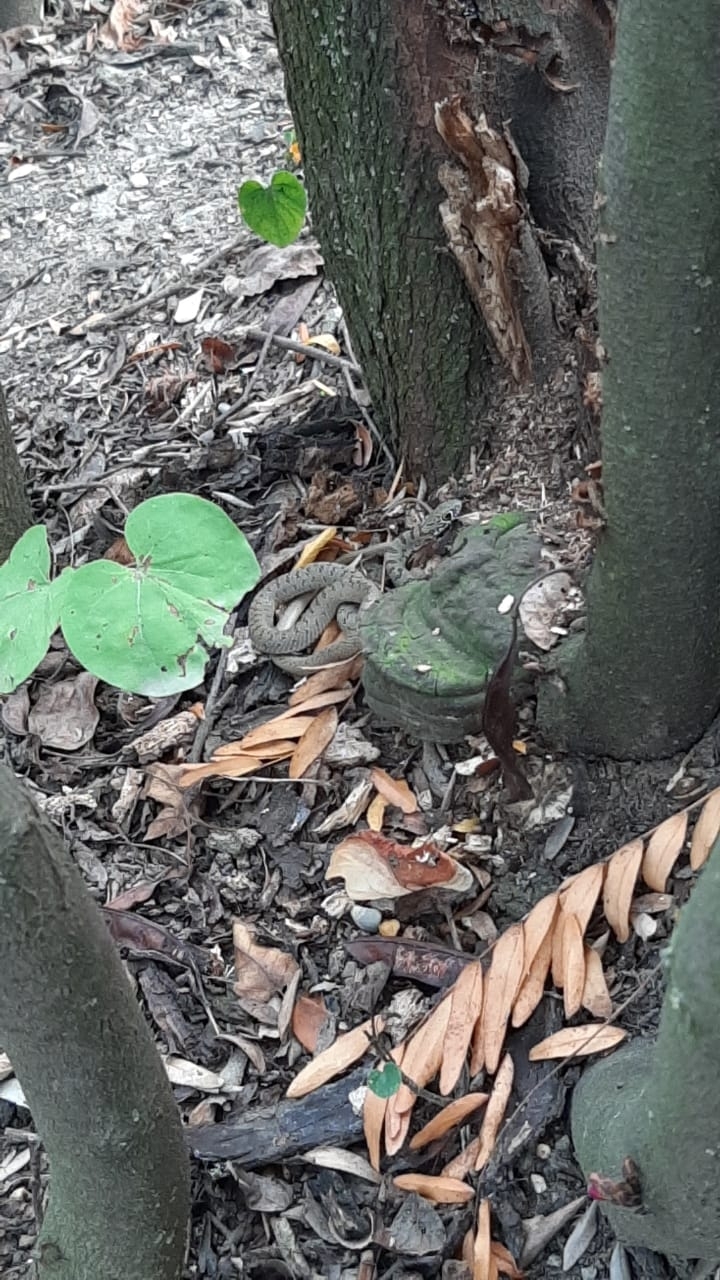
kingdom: Animalia
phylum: Chordata
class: Squamata
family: Colubridae
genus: Dolichophis
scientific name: Dolichophis caspius
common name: Large whip snake
